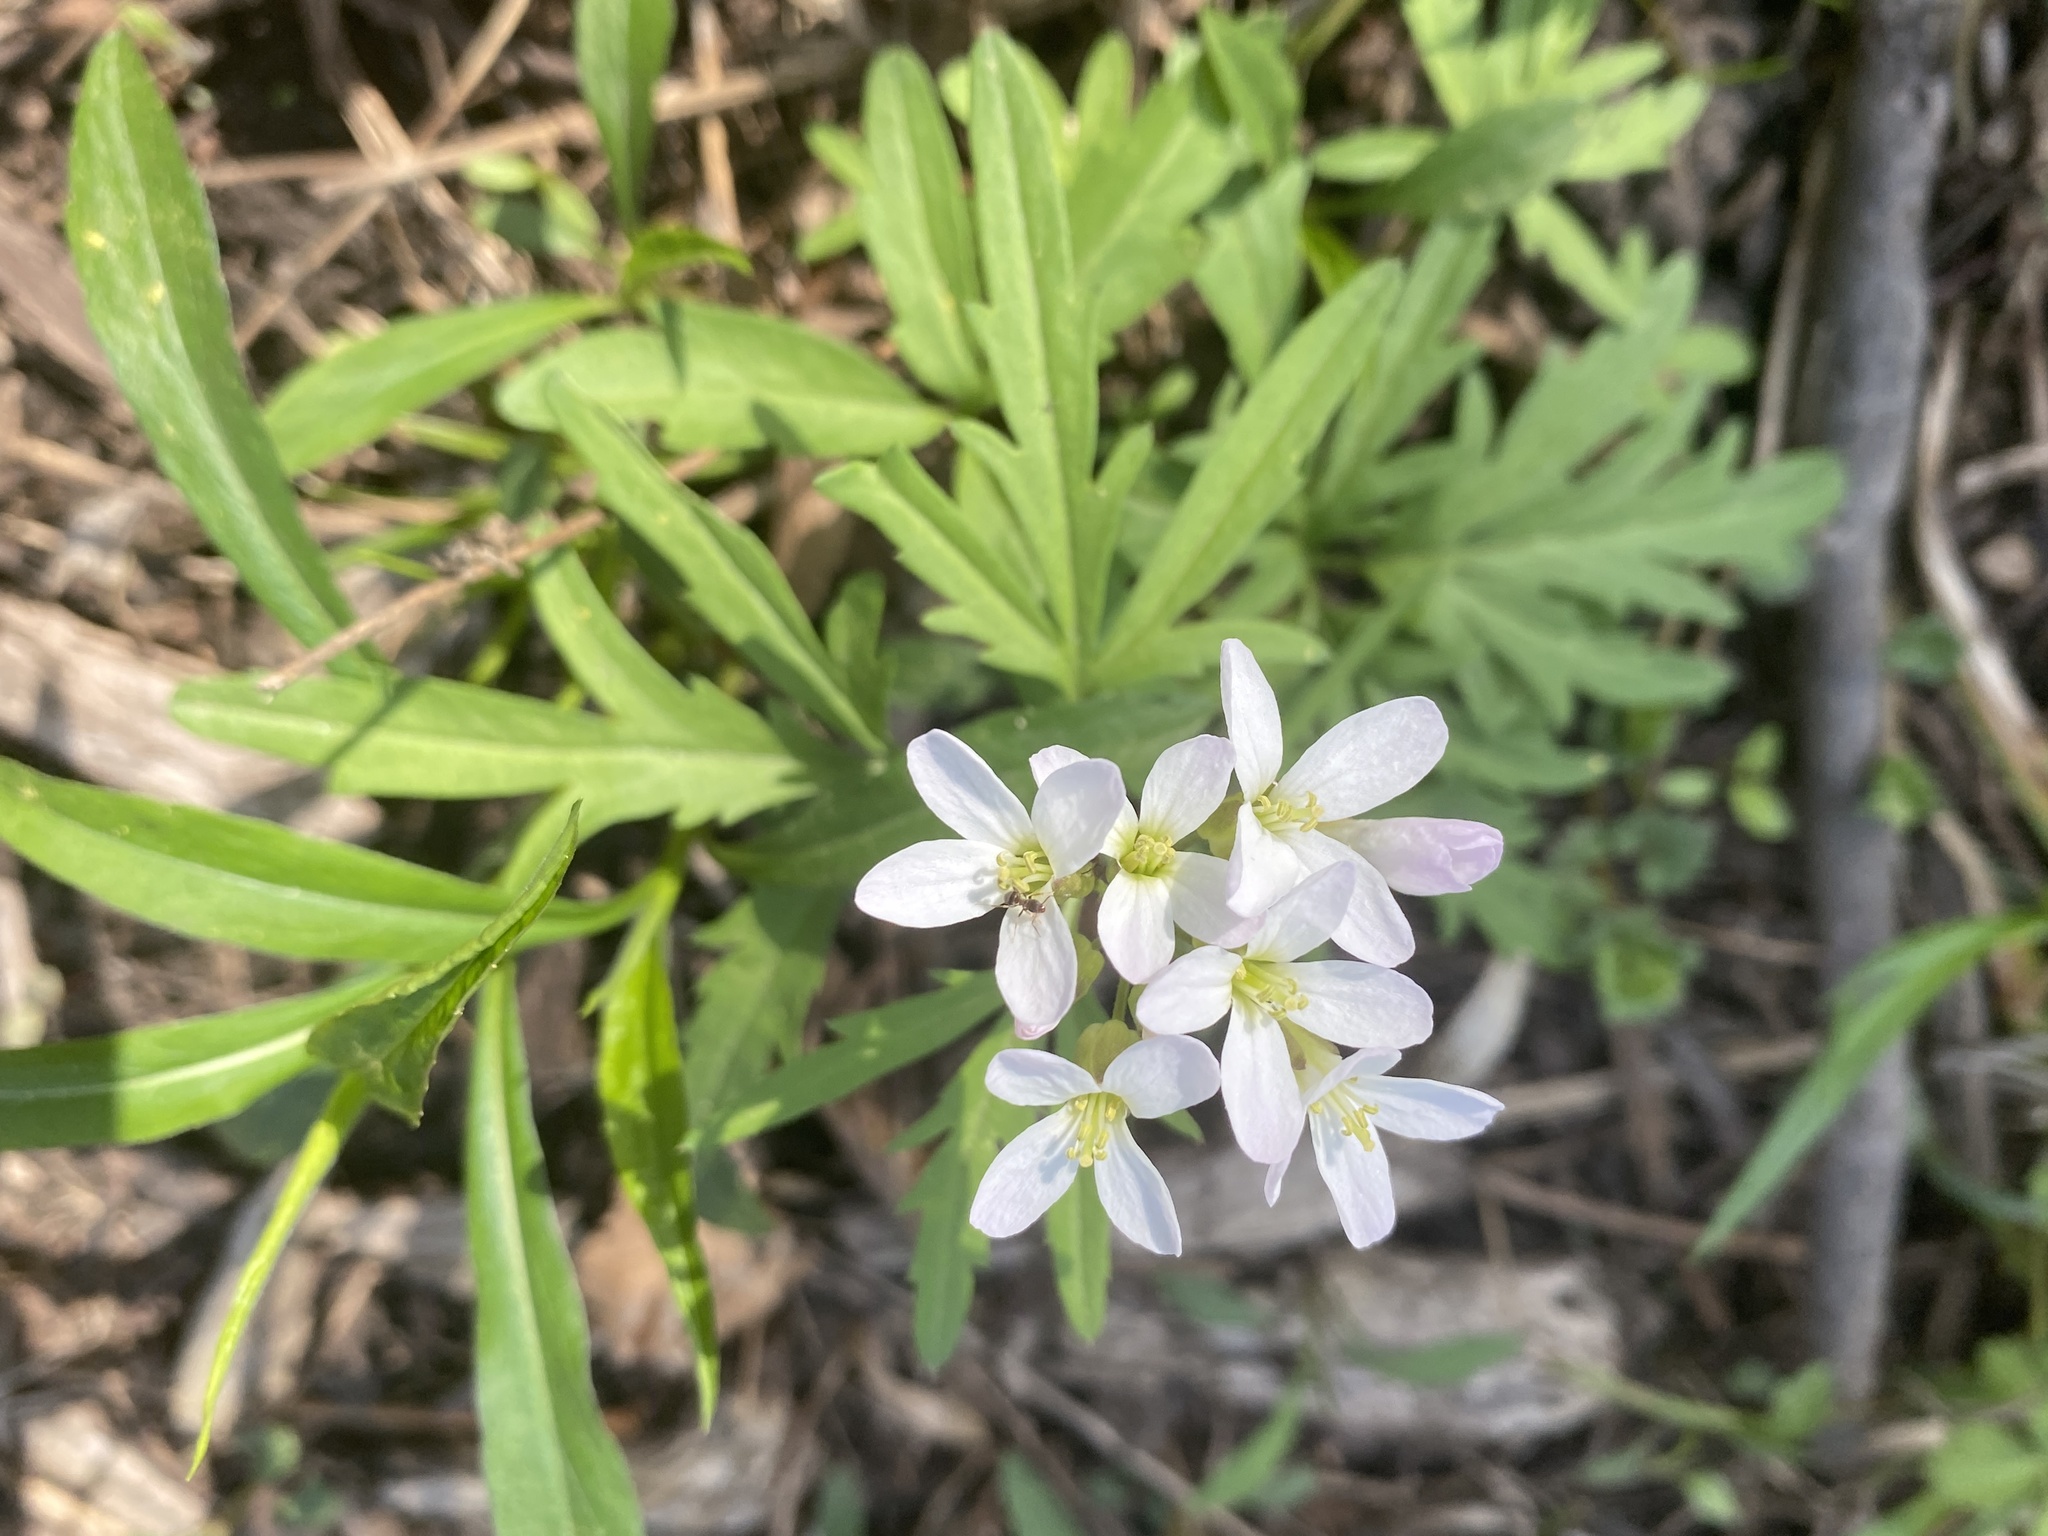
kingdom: Plantae
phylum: Tracheophyta
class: Magnoliopsida
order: Brassicales
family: Brassicaceae
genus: Cardamine
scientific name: Cardamine concatenata
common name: Cut-leaf toothcup
